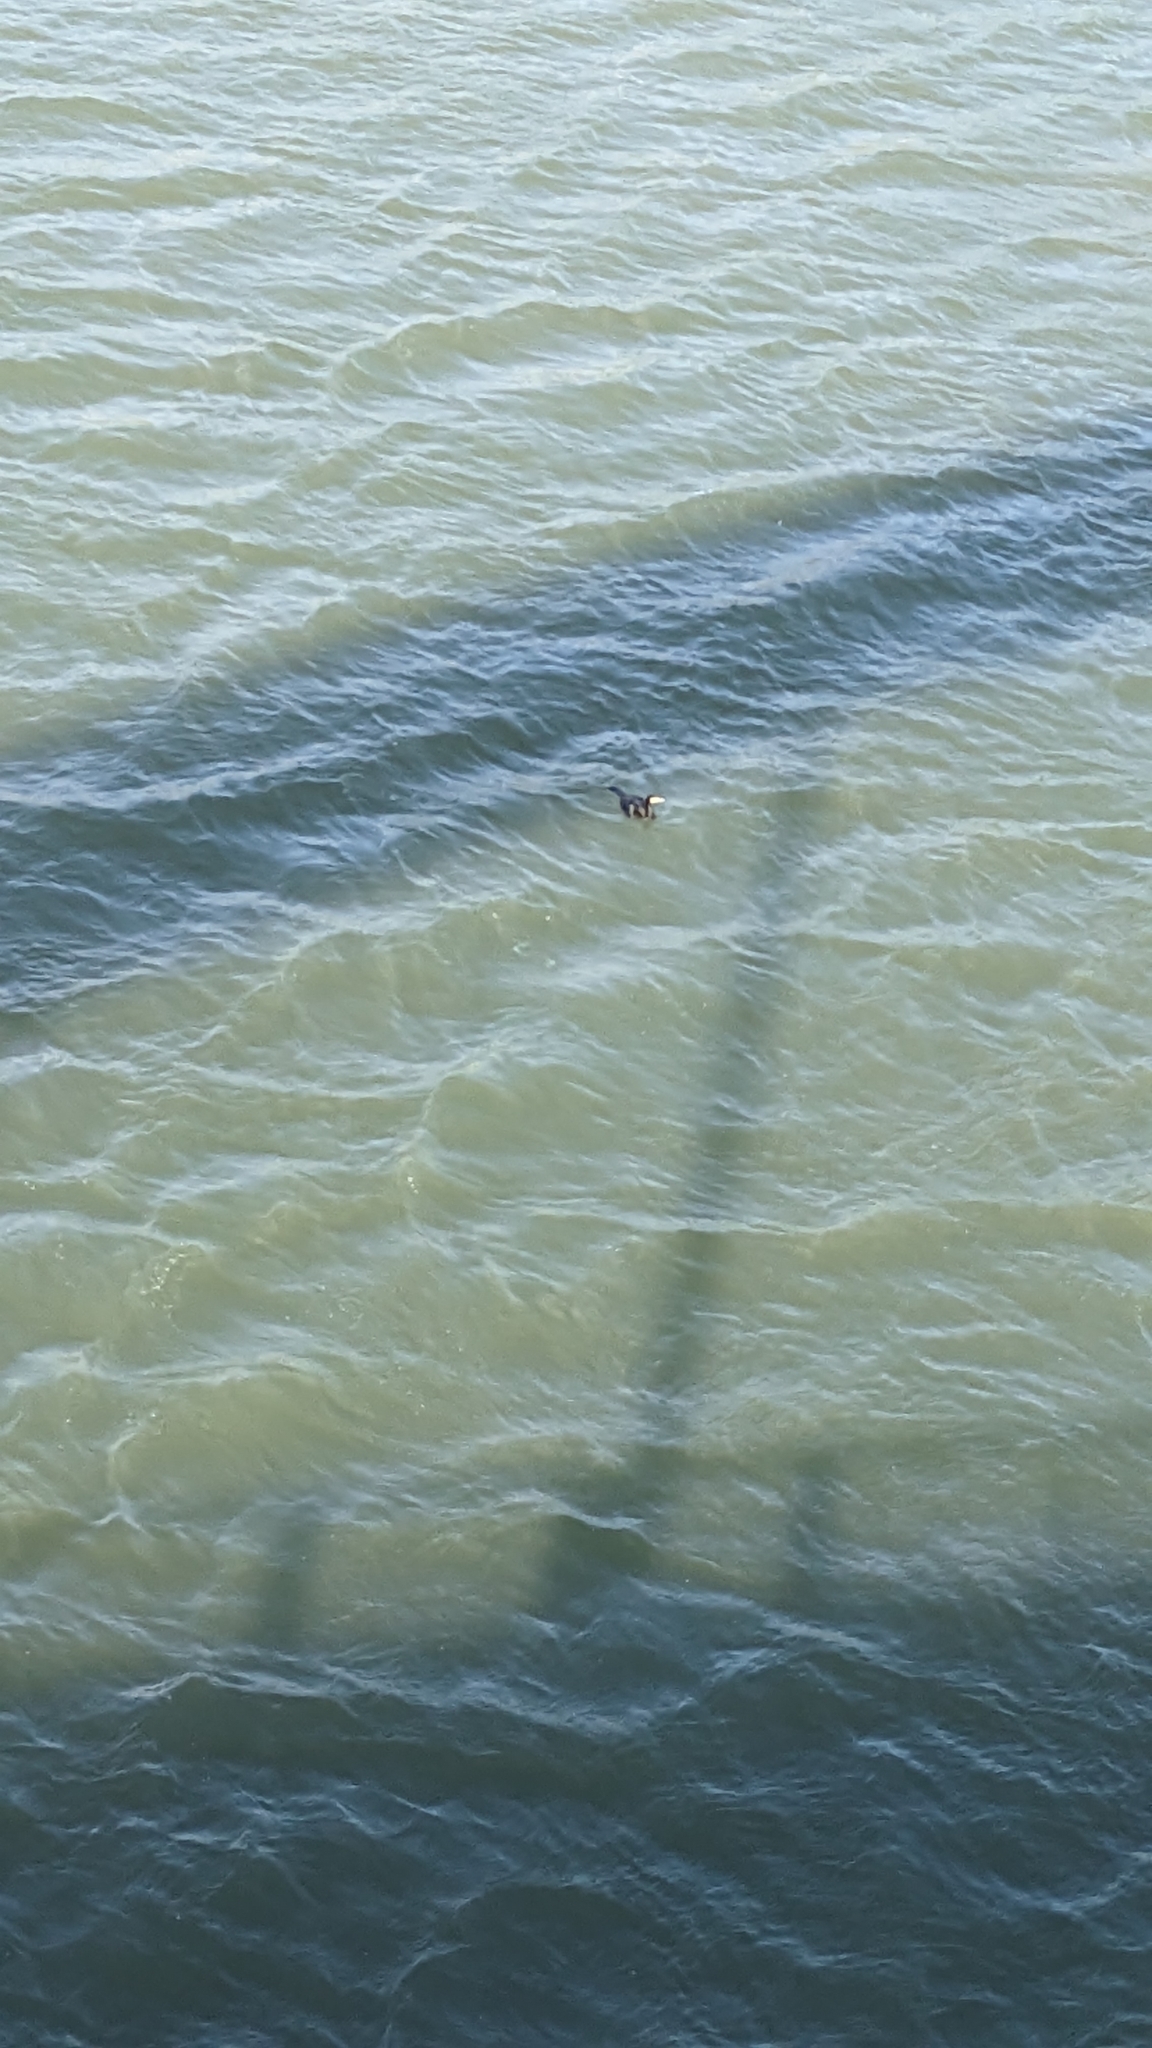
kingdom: Animalia
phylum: Chordata
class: Aves
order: Suliformes
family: Phalacrocoracidae
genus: Phalacrocorax
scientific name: Phalacrocorax carbo
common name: Great cormorant
